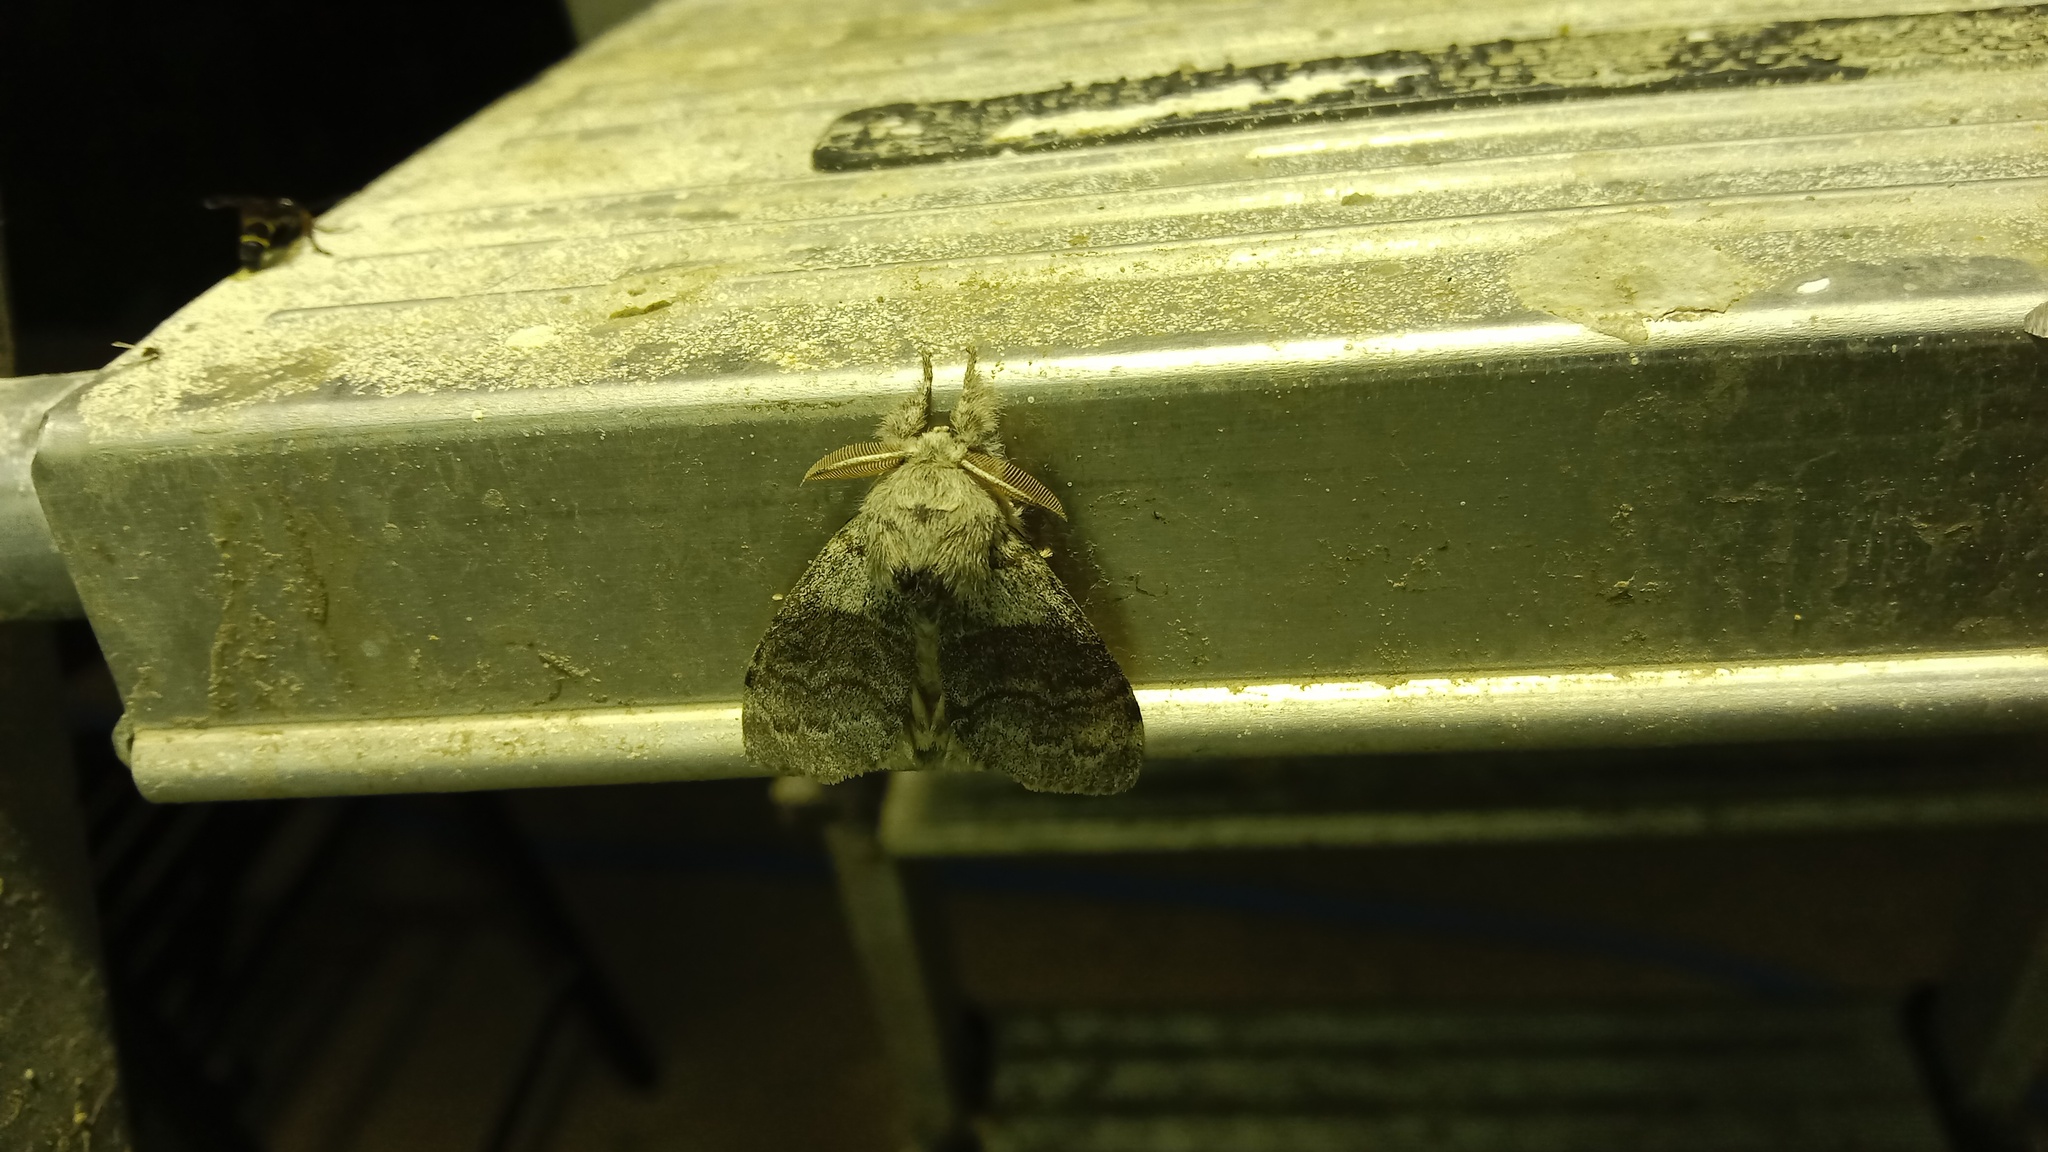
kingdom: Animalia
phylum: Arthropoda
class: Insecta
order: Lepidoptera
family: Erebidae
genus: Calliteara
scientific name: Calliteara pudibunda
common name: Pale tussock
